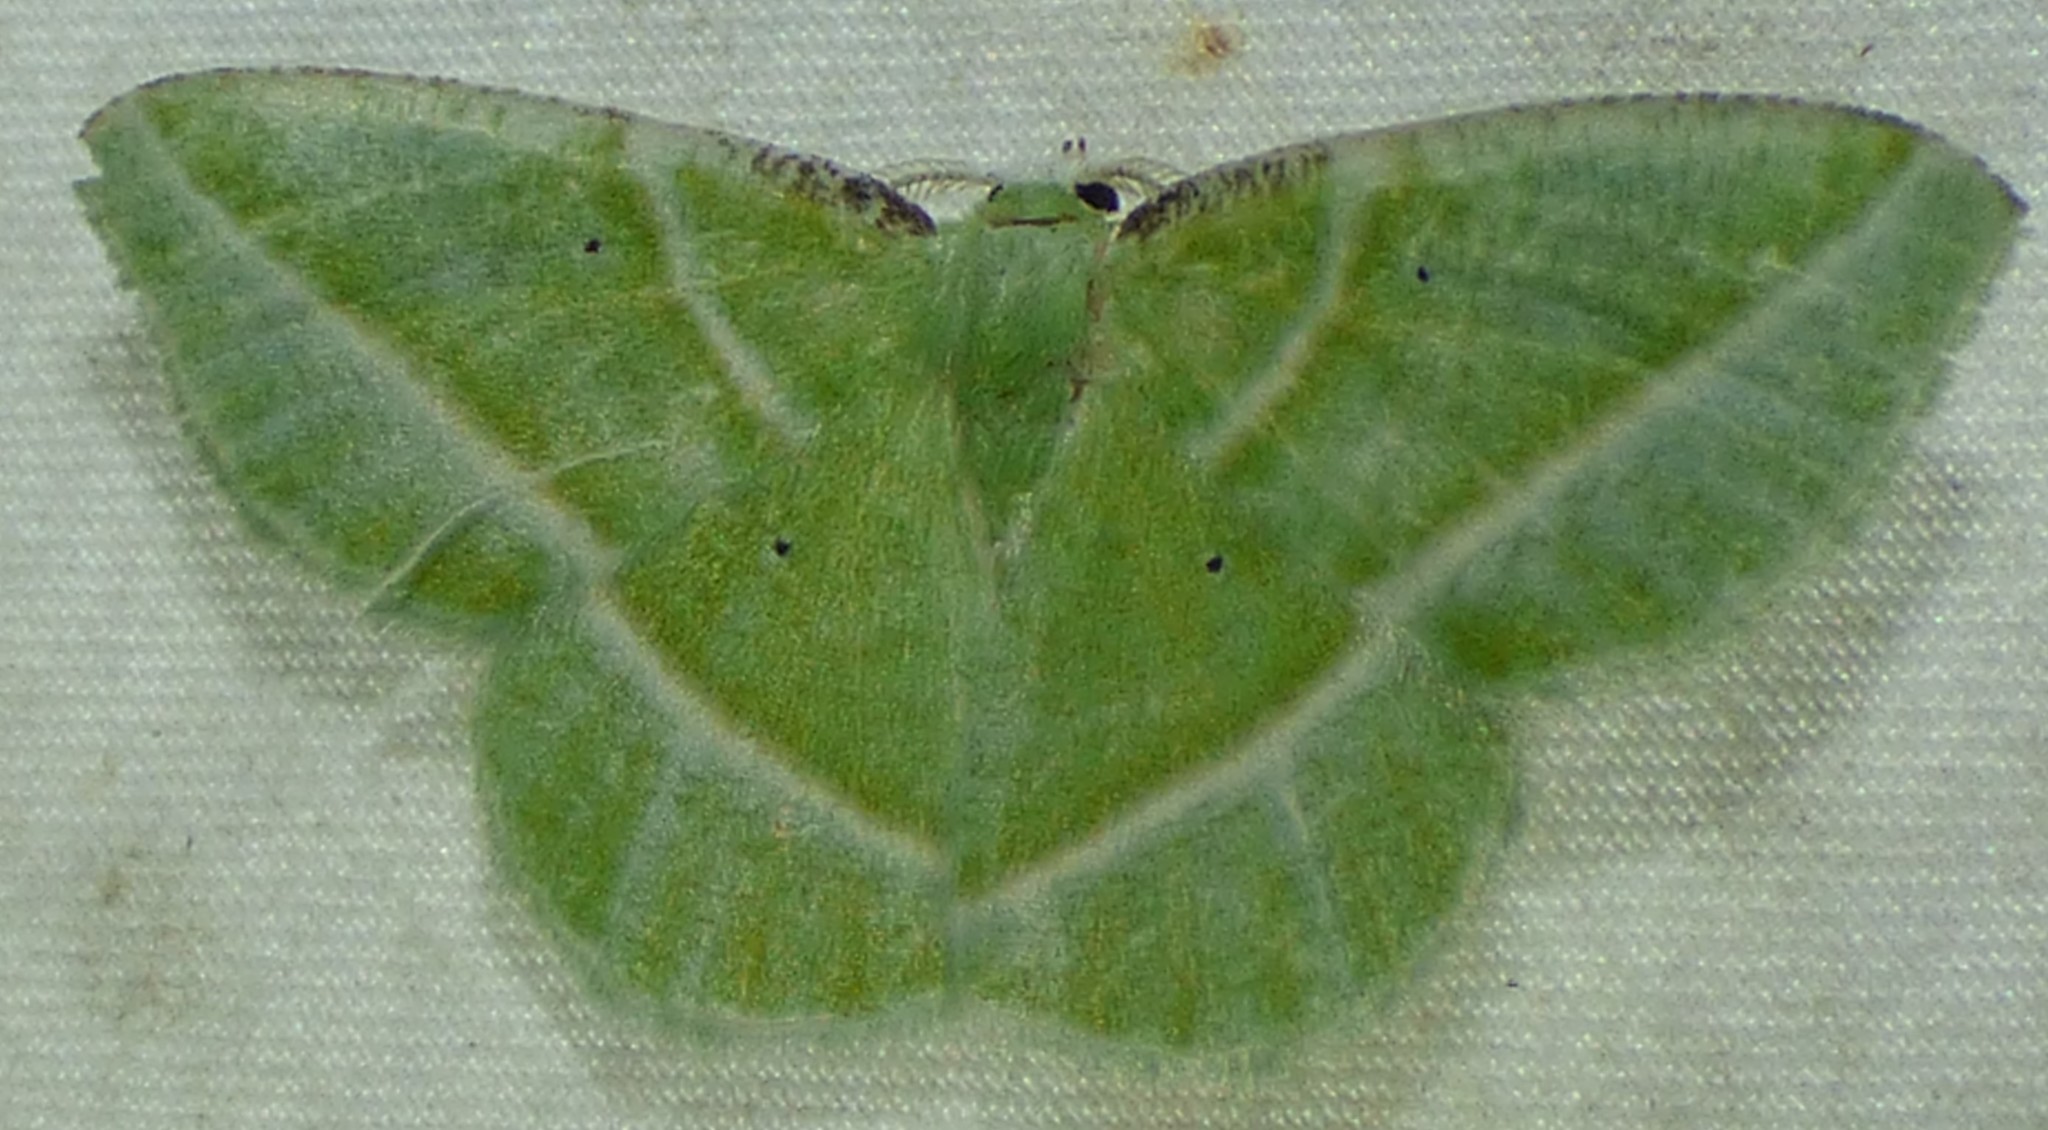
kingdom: Animalia
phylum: Arthropoda
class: Insecta
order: Lepidoptera
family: Geometridae
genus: Dichorda
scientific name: Dichorda iridaria
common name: Showy emerald
